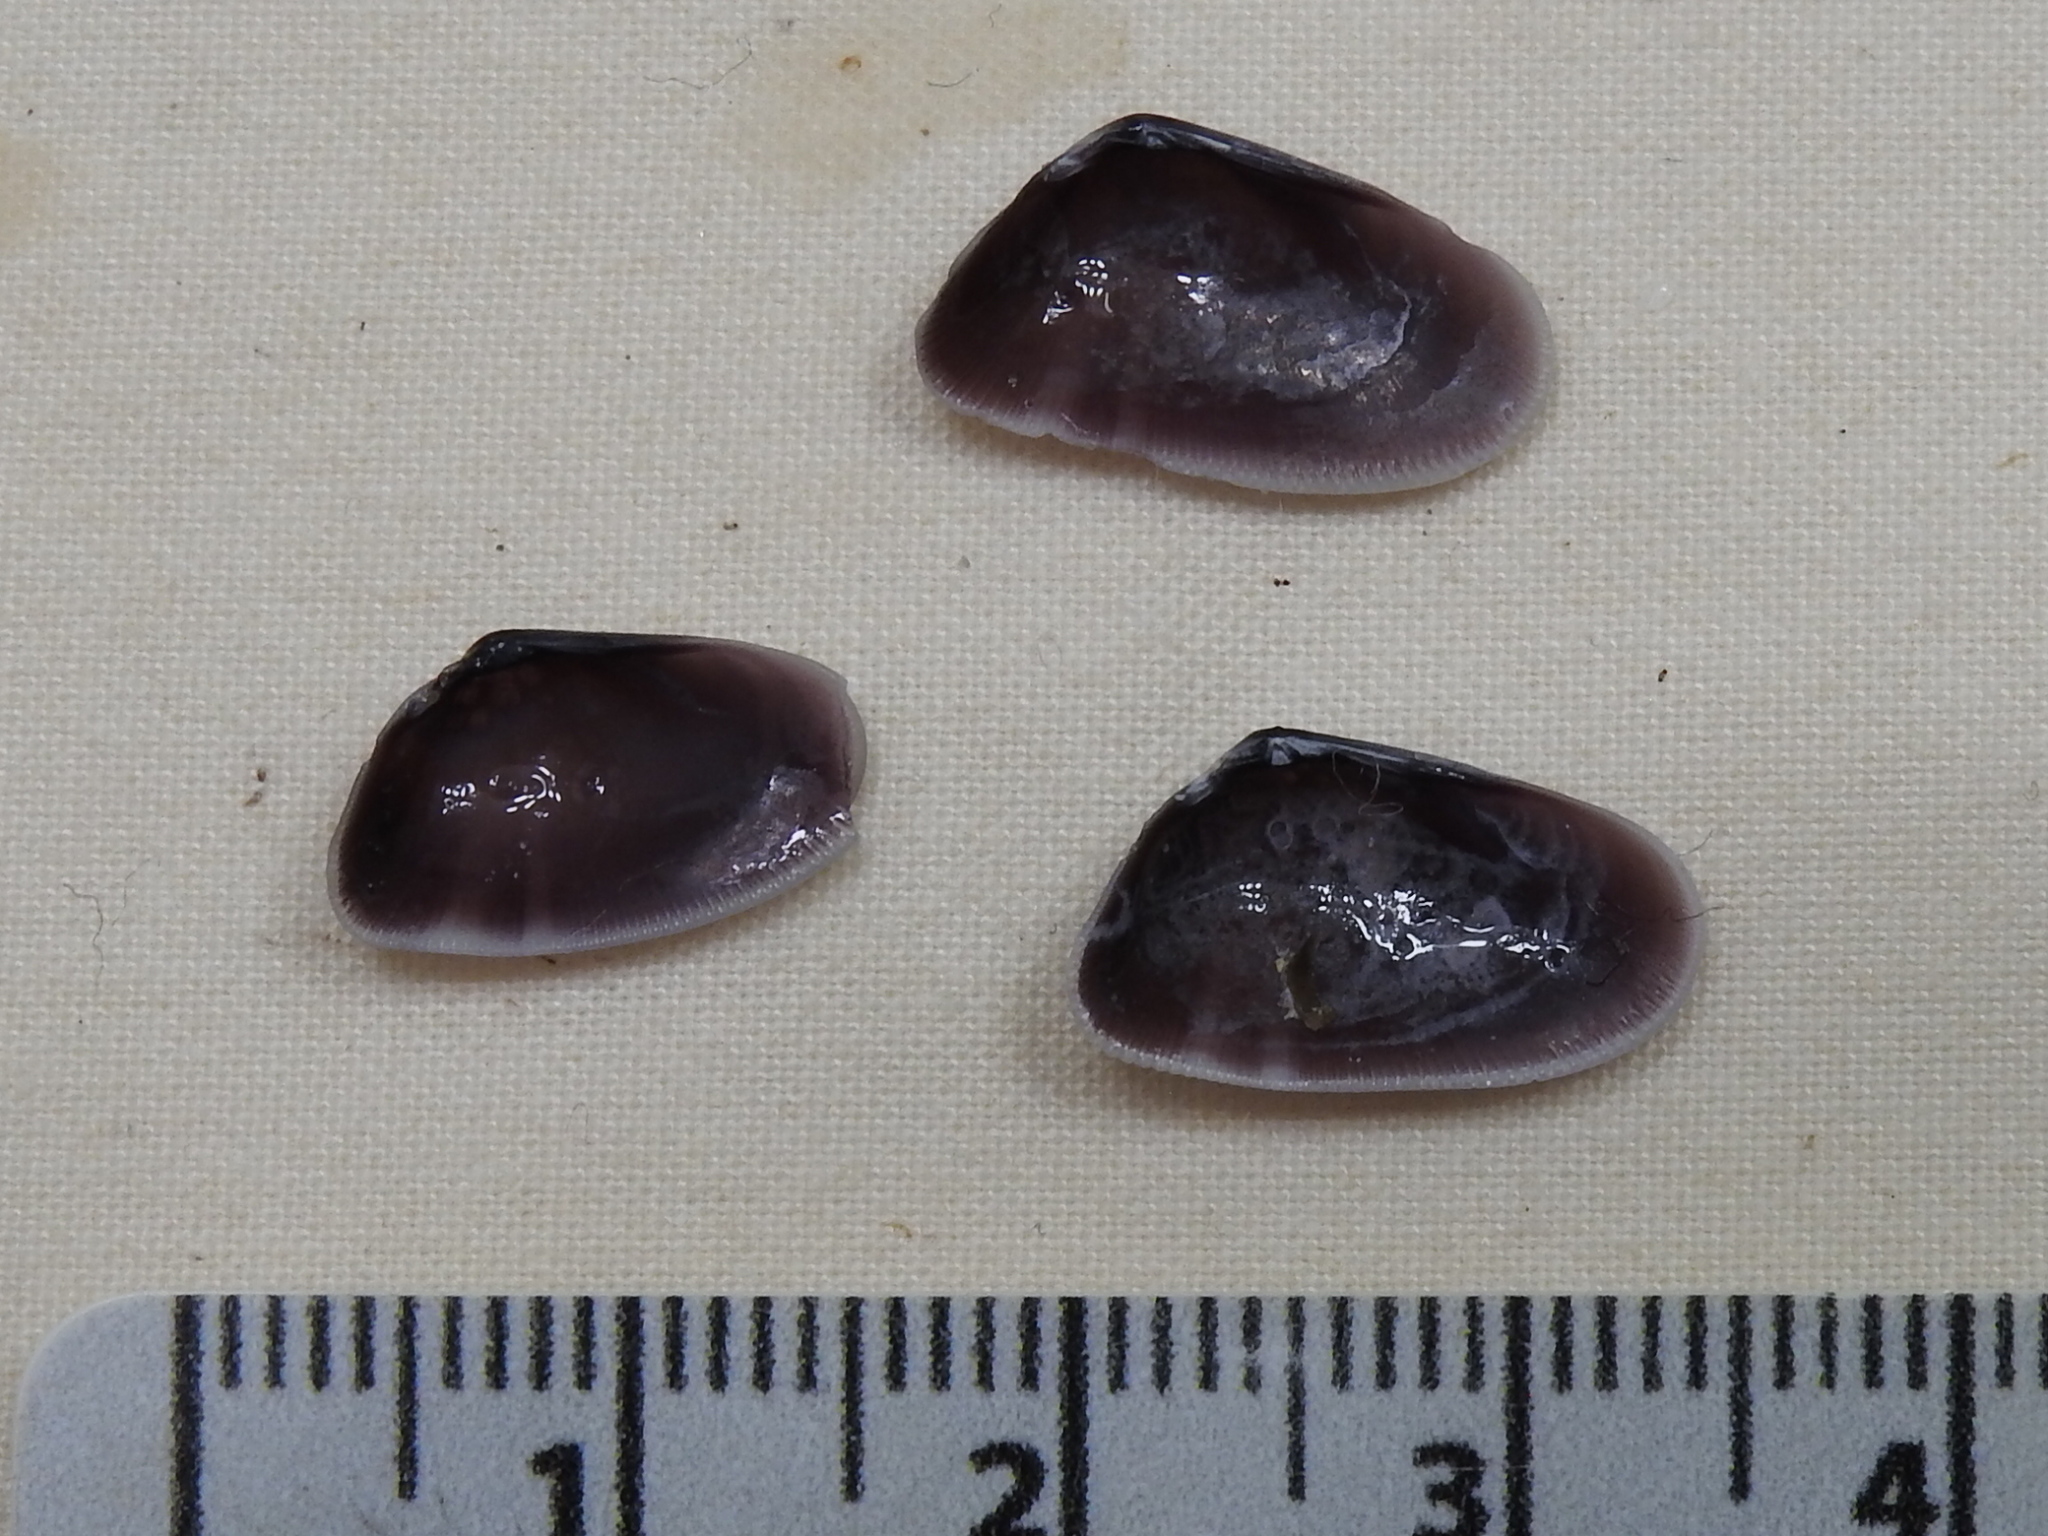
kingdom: Animalia
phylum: Mollusca
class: Bivalvia
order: Cardiida
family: Donacidae
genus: Donax
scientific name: Donax variabilis
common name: Butterfly shell
